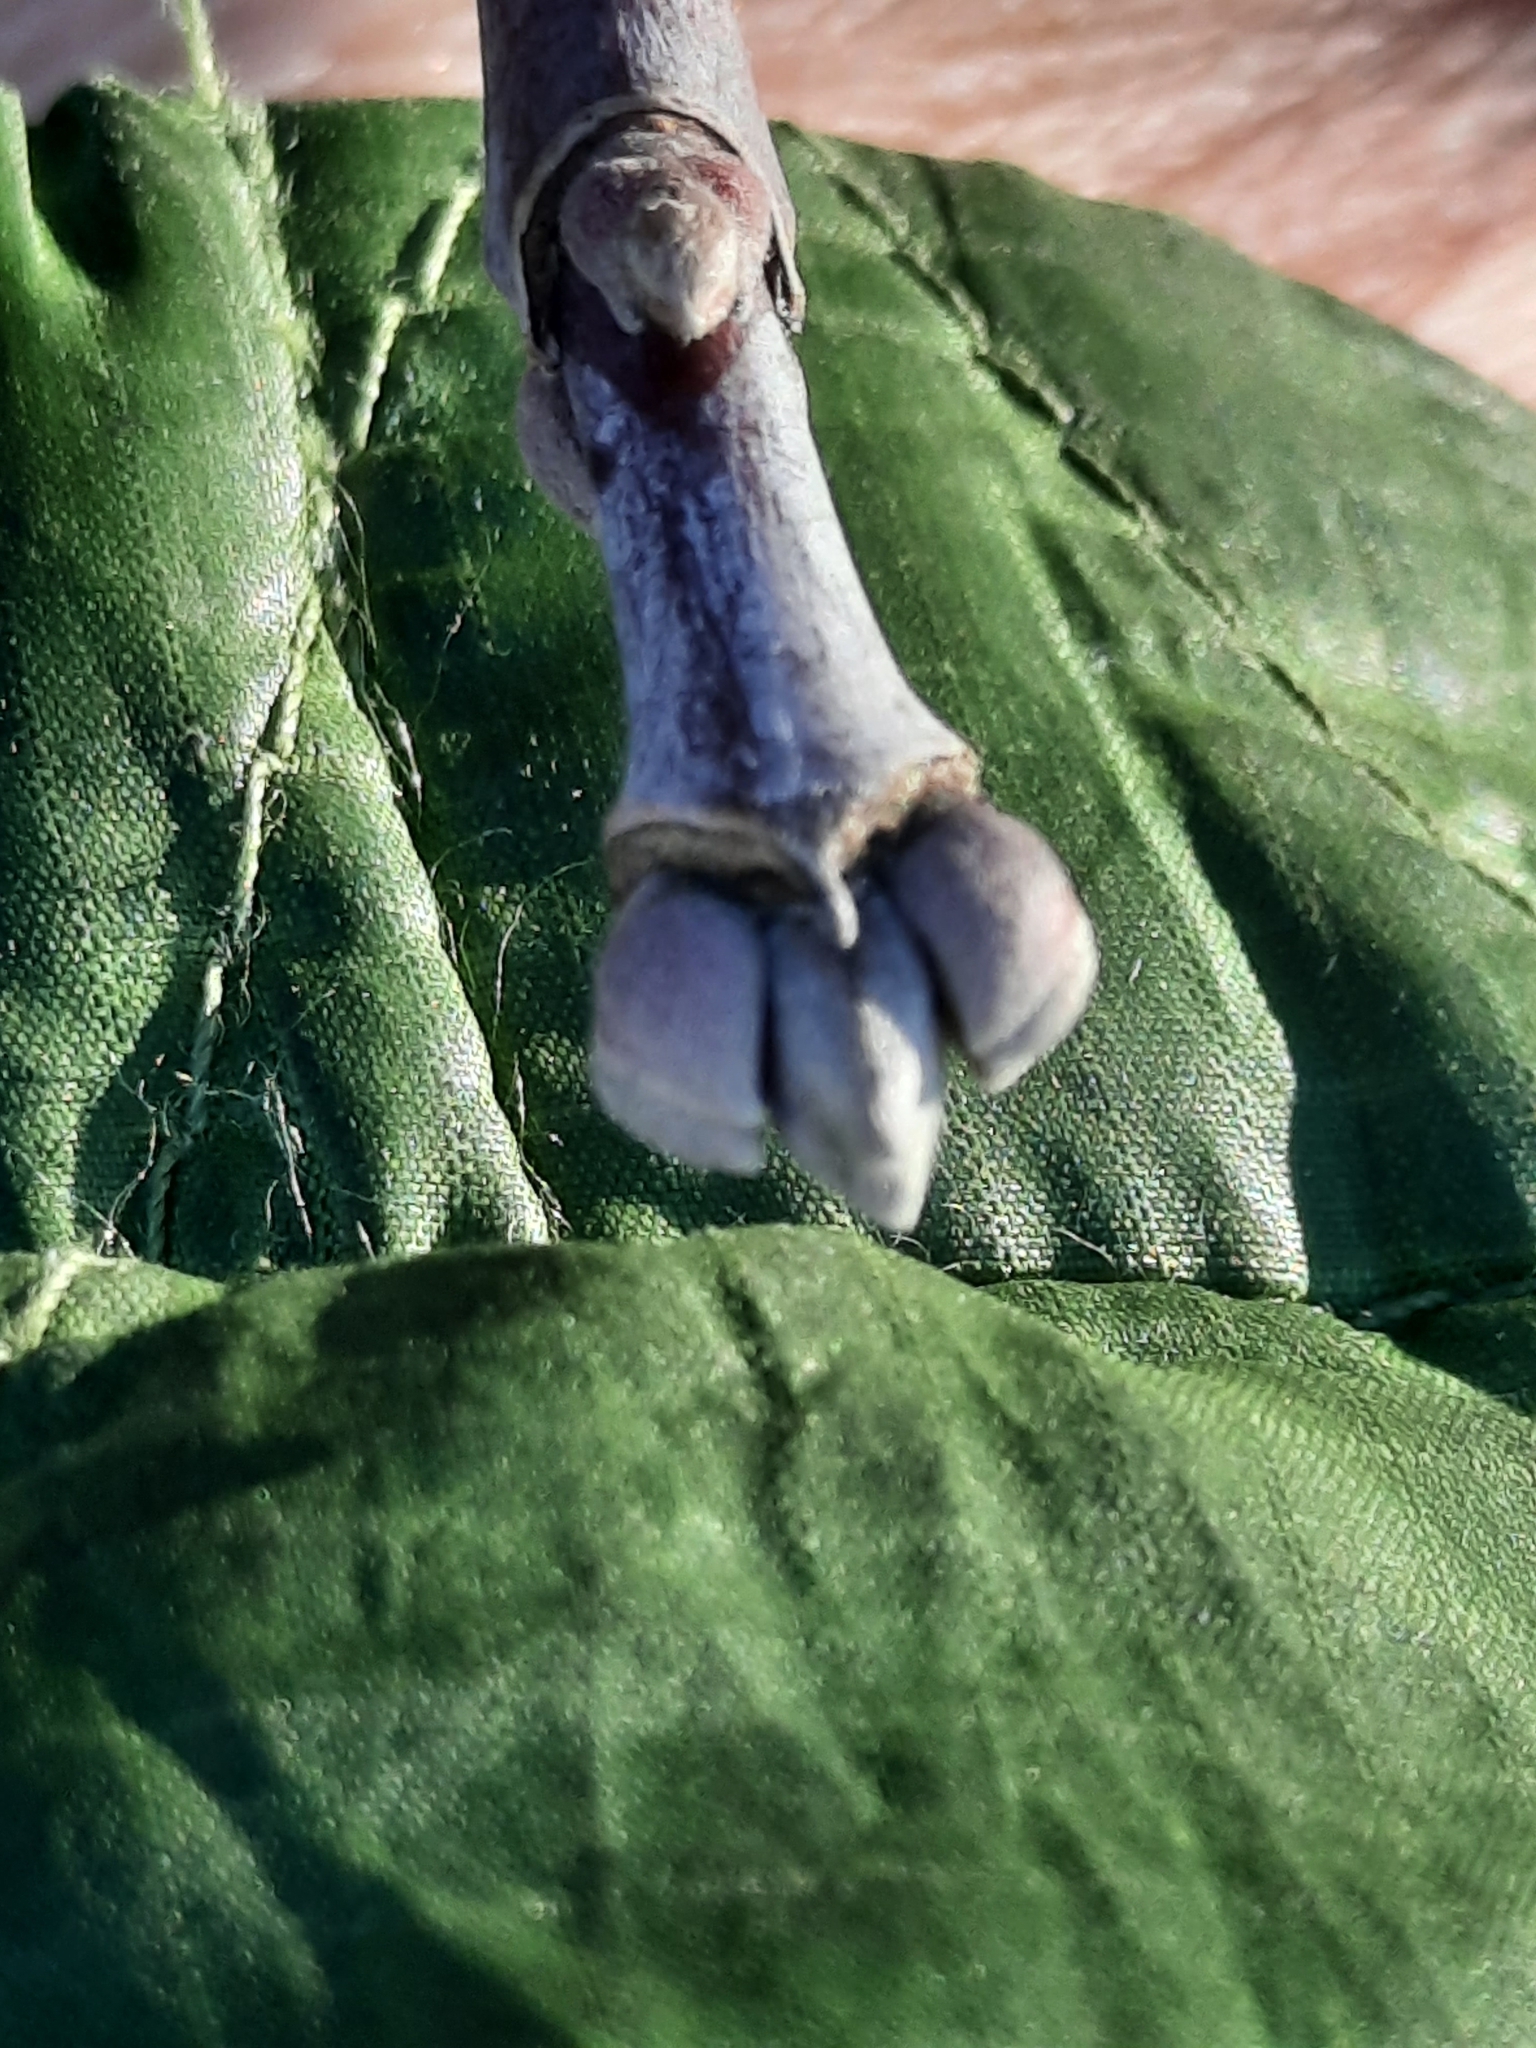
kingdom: Plantae
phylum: Tracheophyta
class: Magnoliopsida
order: Sapindales
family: Sapindaceae
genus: Acer
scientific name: Acer negundo
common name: Ashleaf maple
